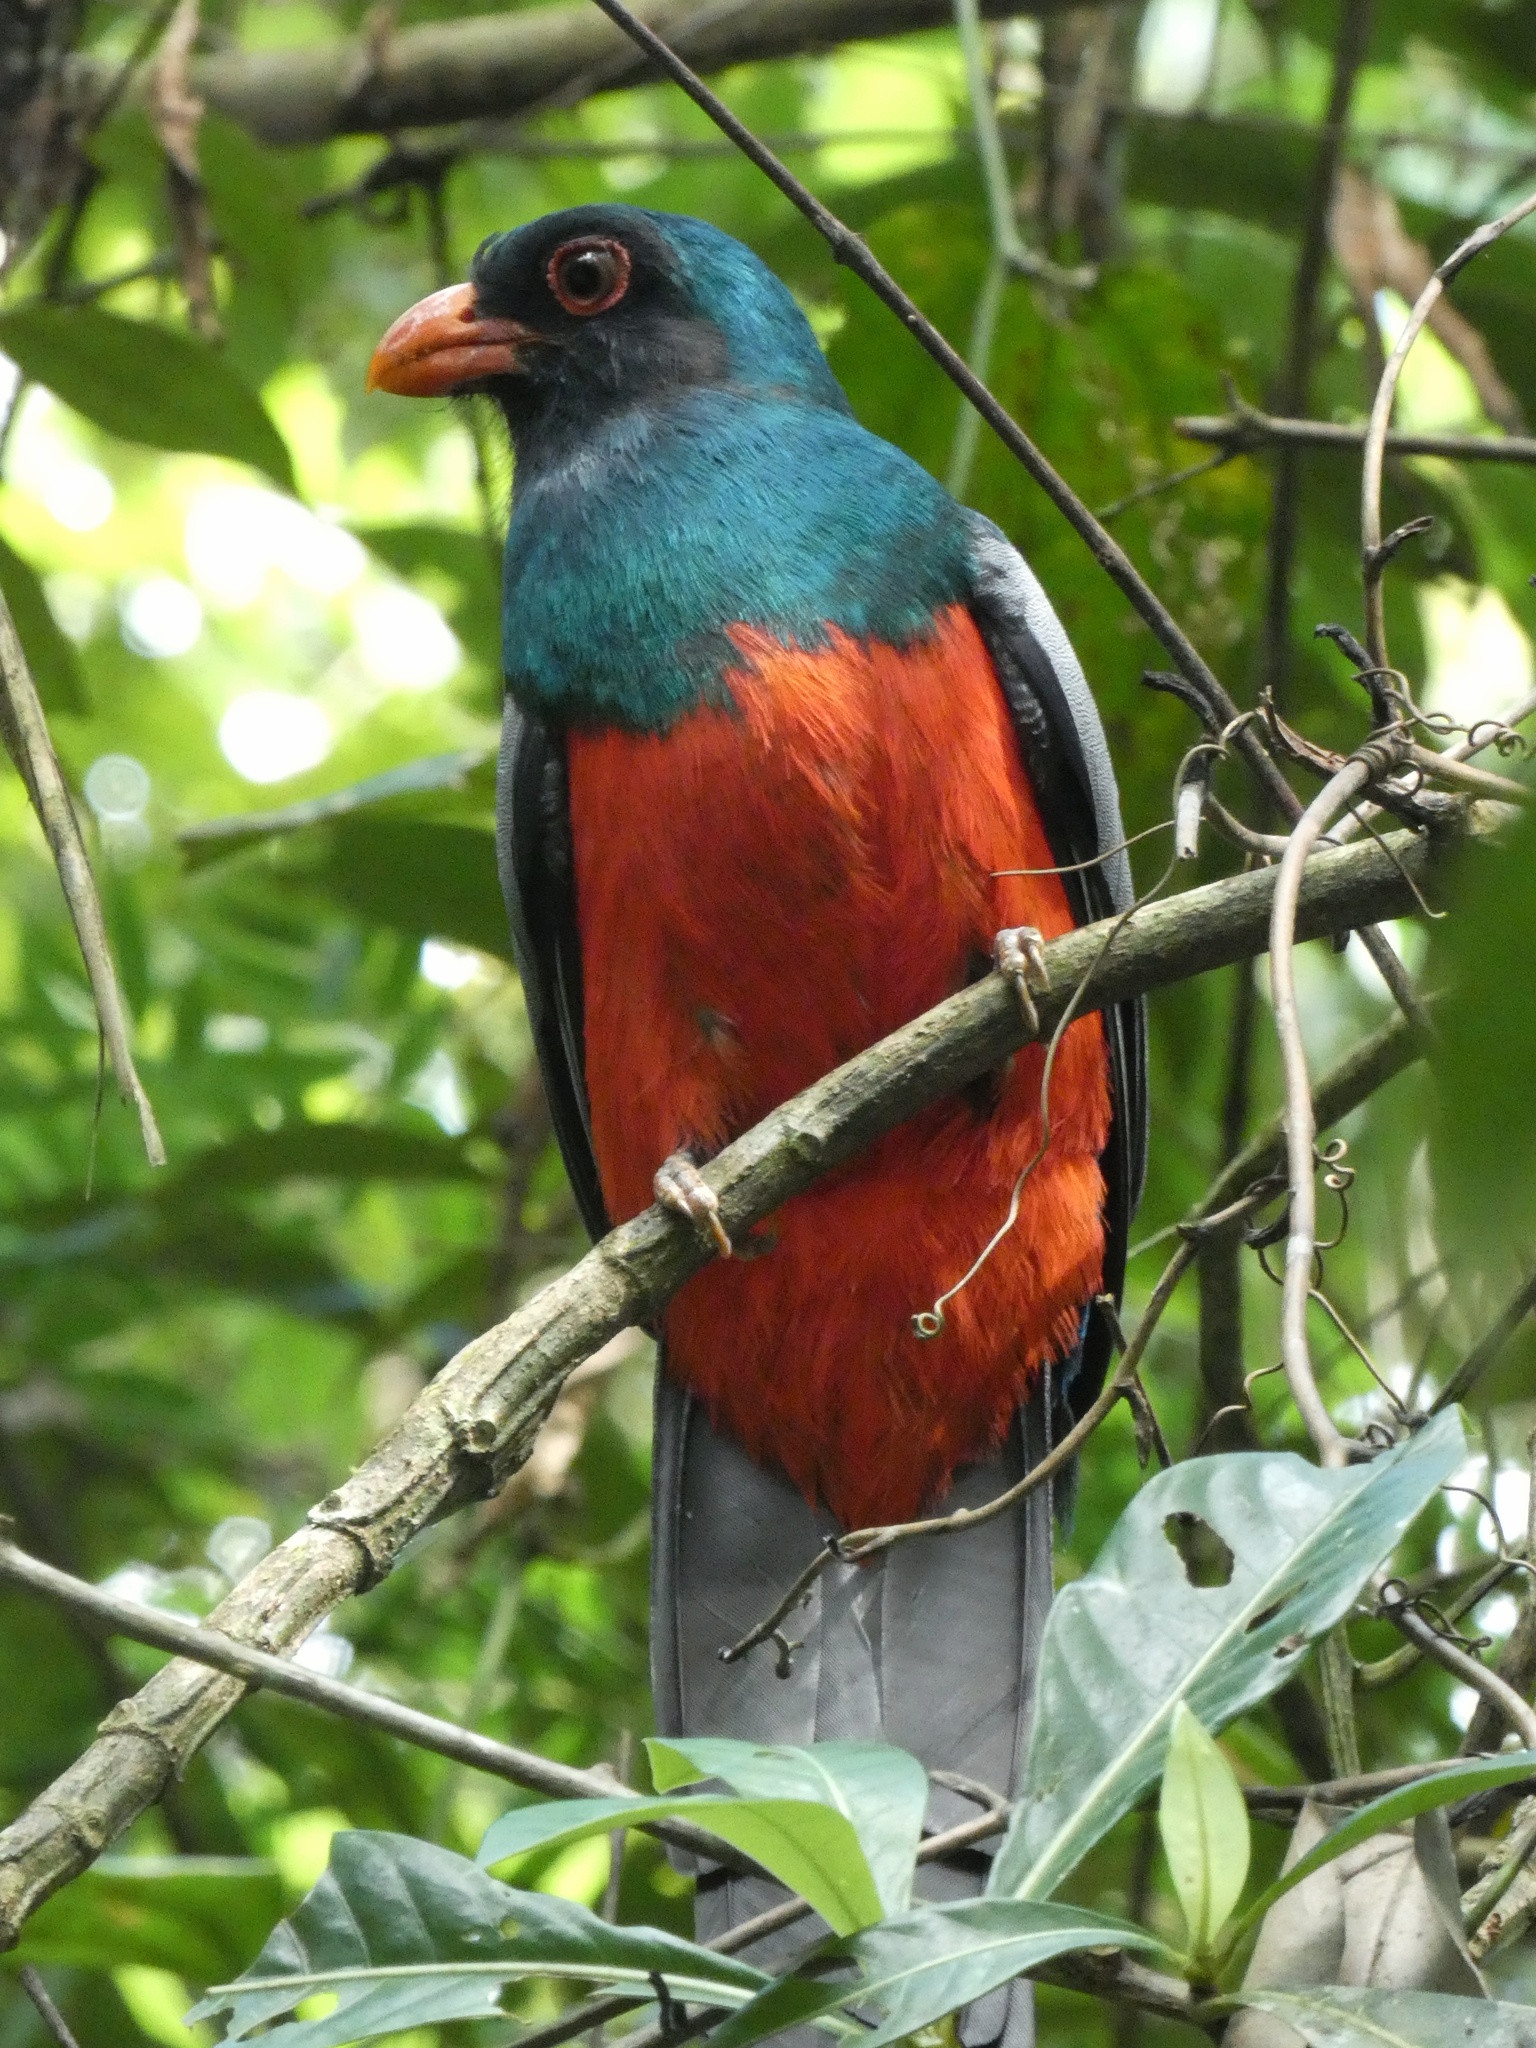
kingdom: Animalia
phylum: Chordata
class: Aves
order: Trogoniformes
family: Trogonidae
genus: Trogon
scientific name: Trogon massena
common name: Slaty-tailed trogon
